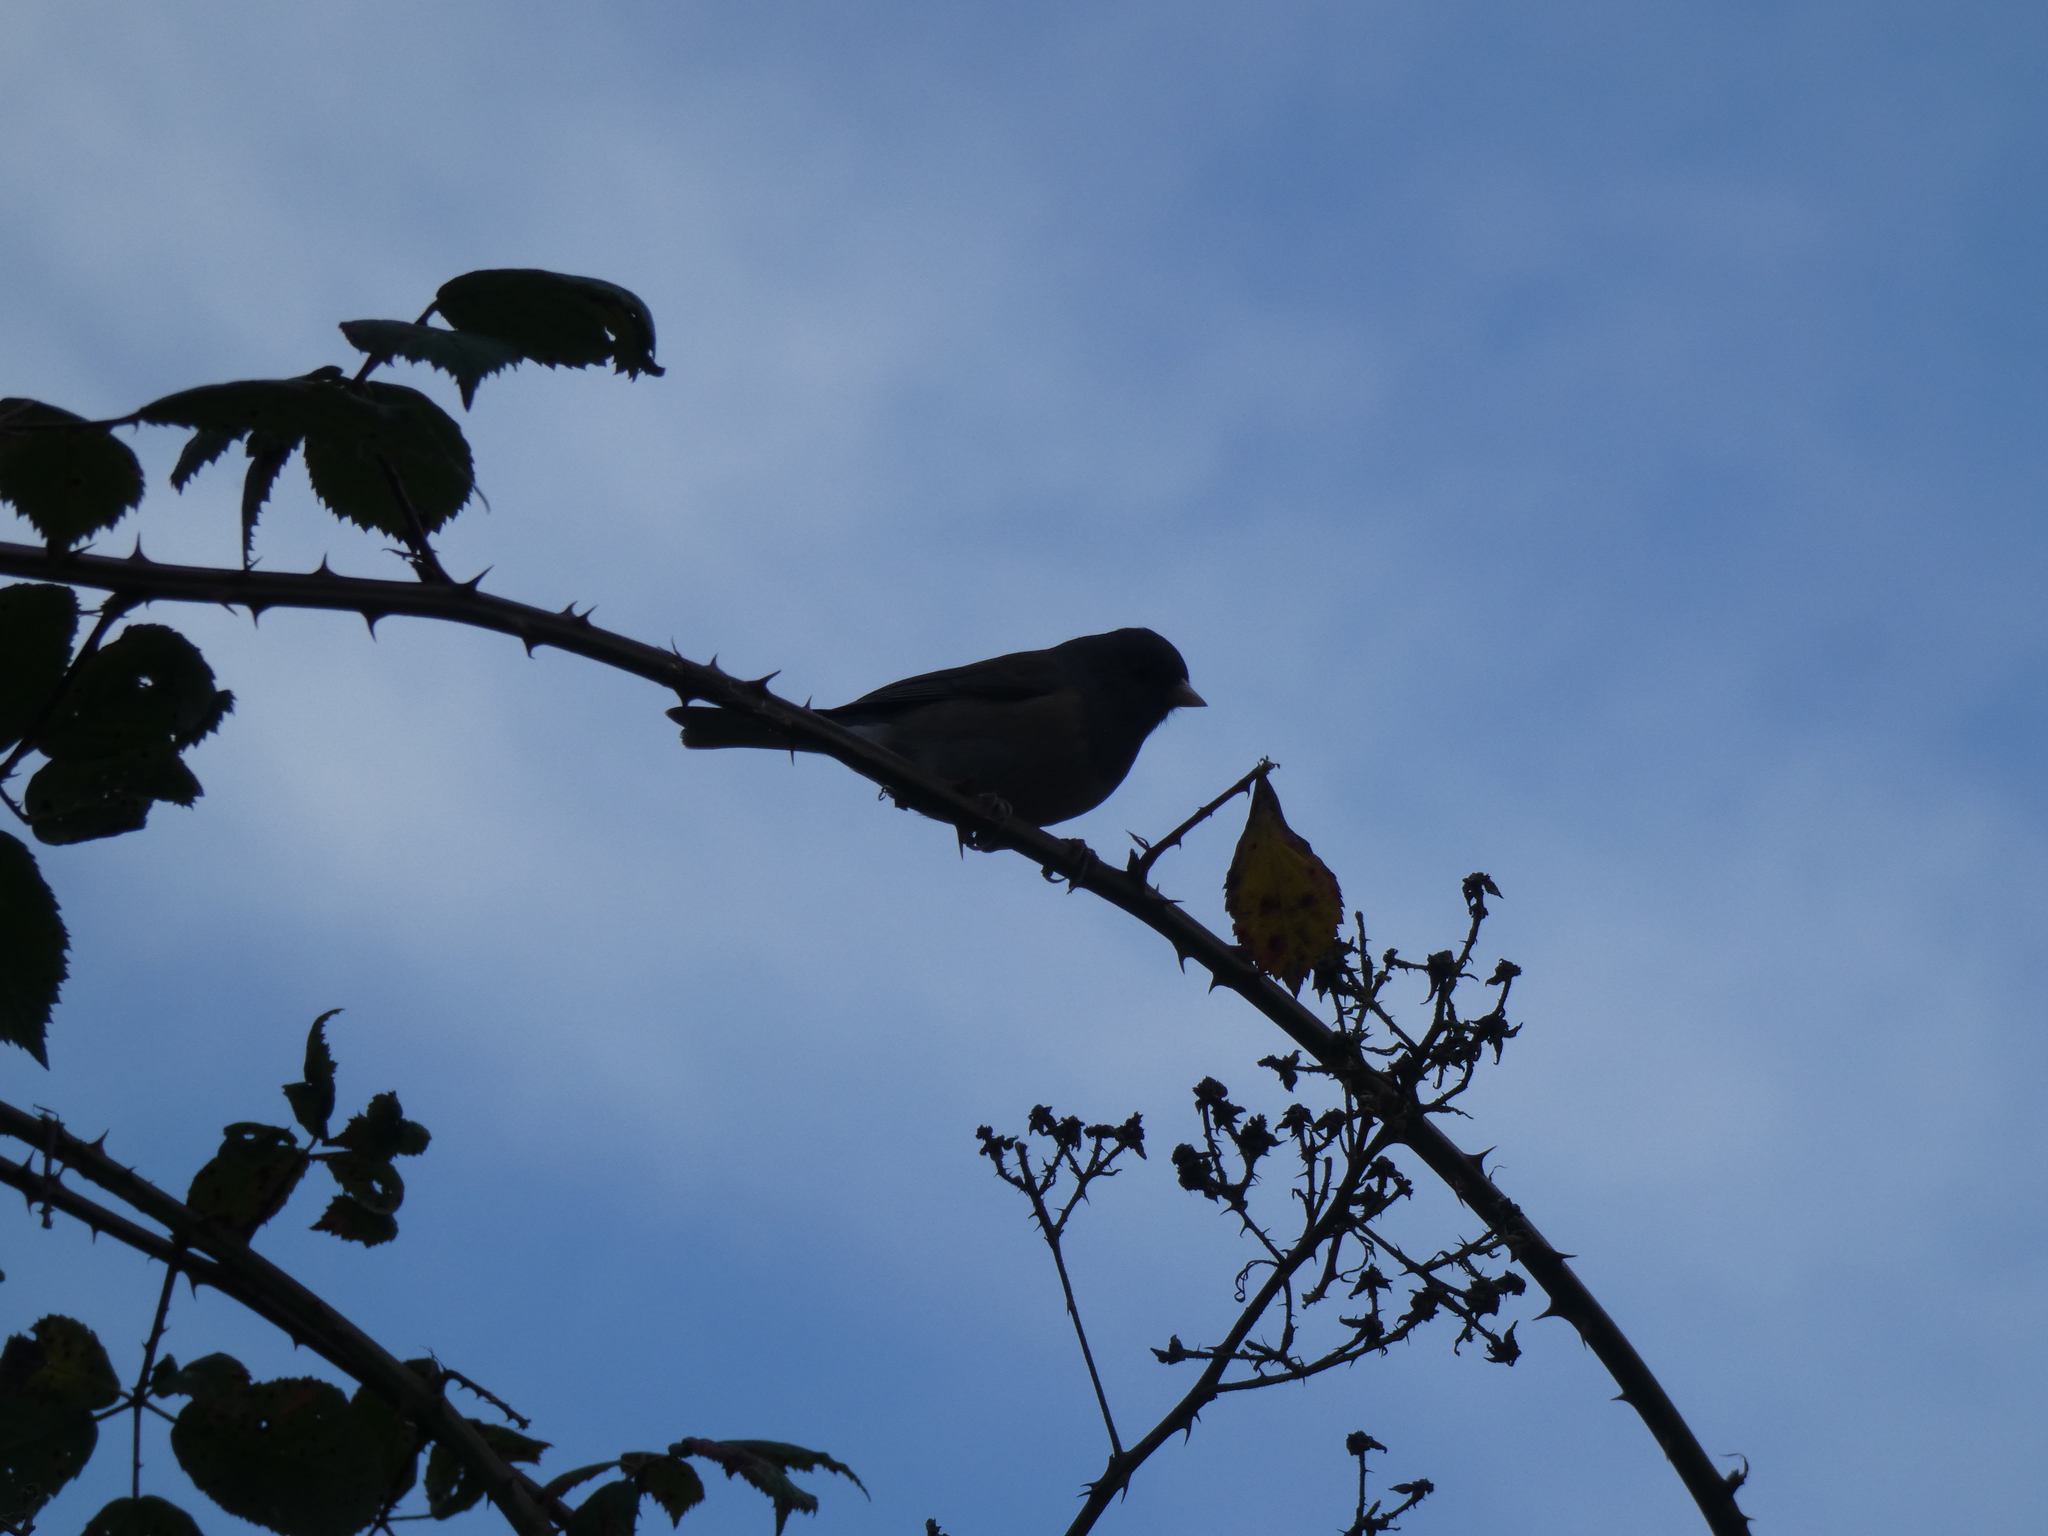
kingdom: Animalia
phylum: Chordata
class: Aves
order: Passeriformes
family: Passerellidae
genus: Junco
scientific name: Junco hyemalis
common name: Dark-eyed junco
